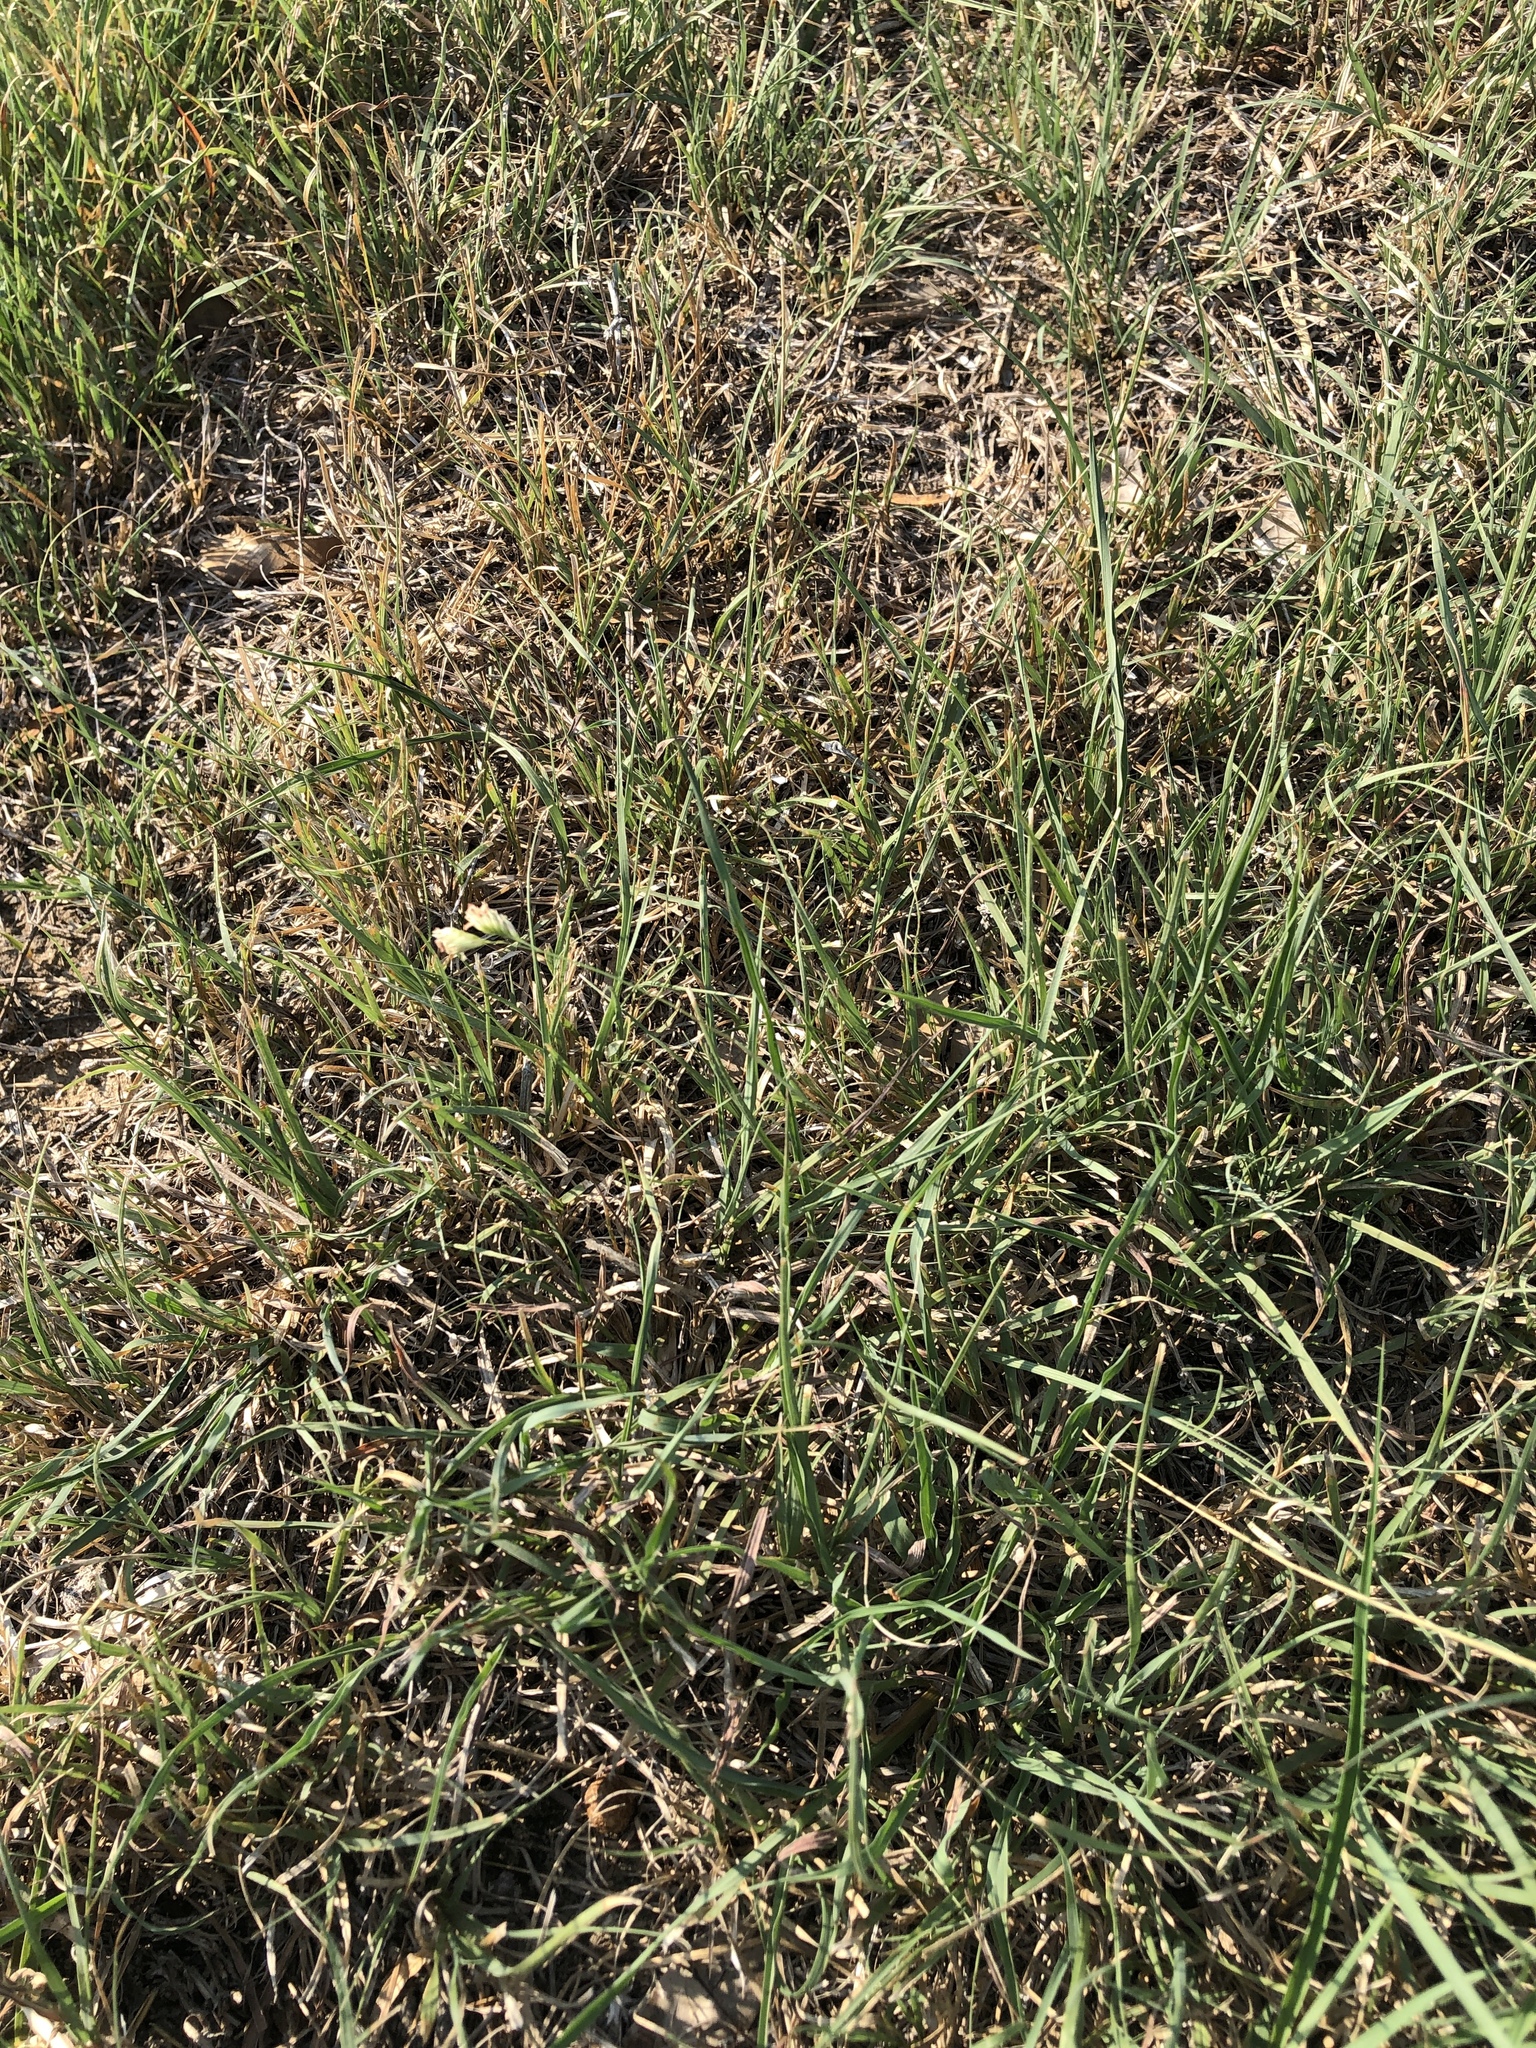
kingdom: Plantae
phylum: Tracheophyta
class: Liliopsida
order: Poales
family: Poaceae
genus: Bouteloua
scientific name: Bouteloua dactyloides
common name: Buffalo grass
